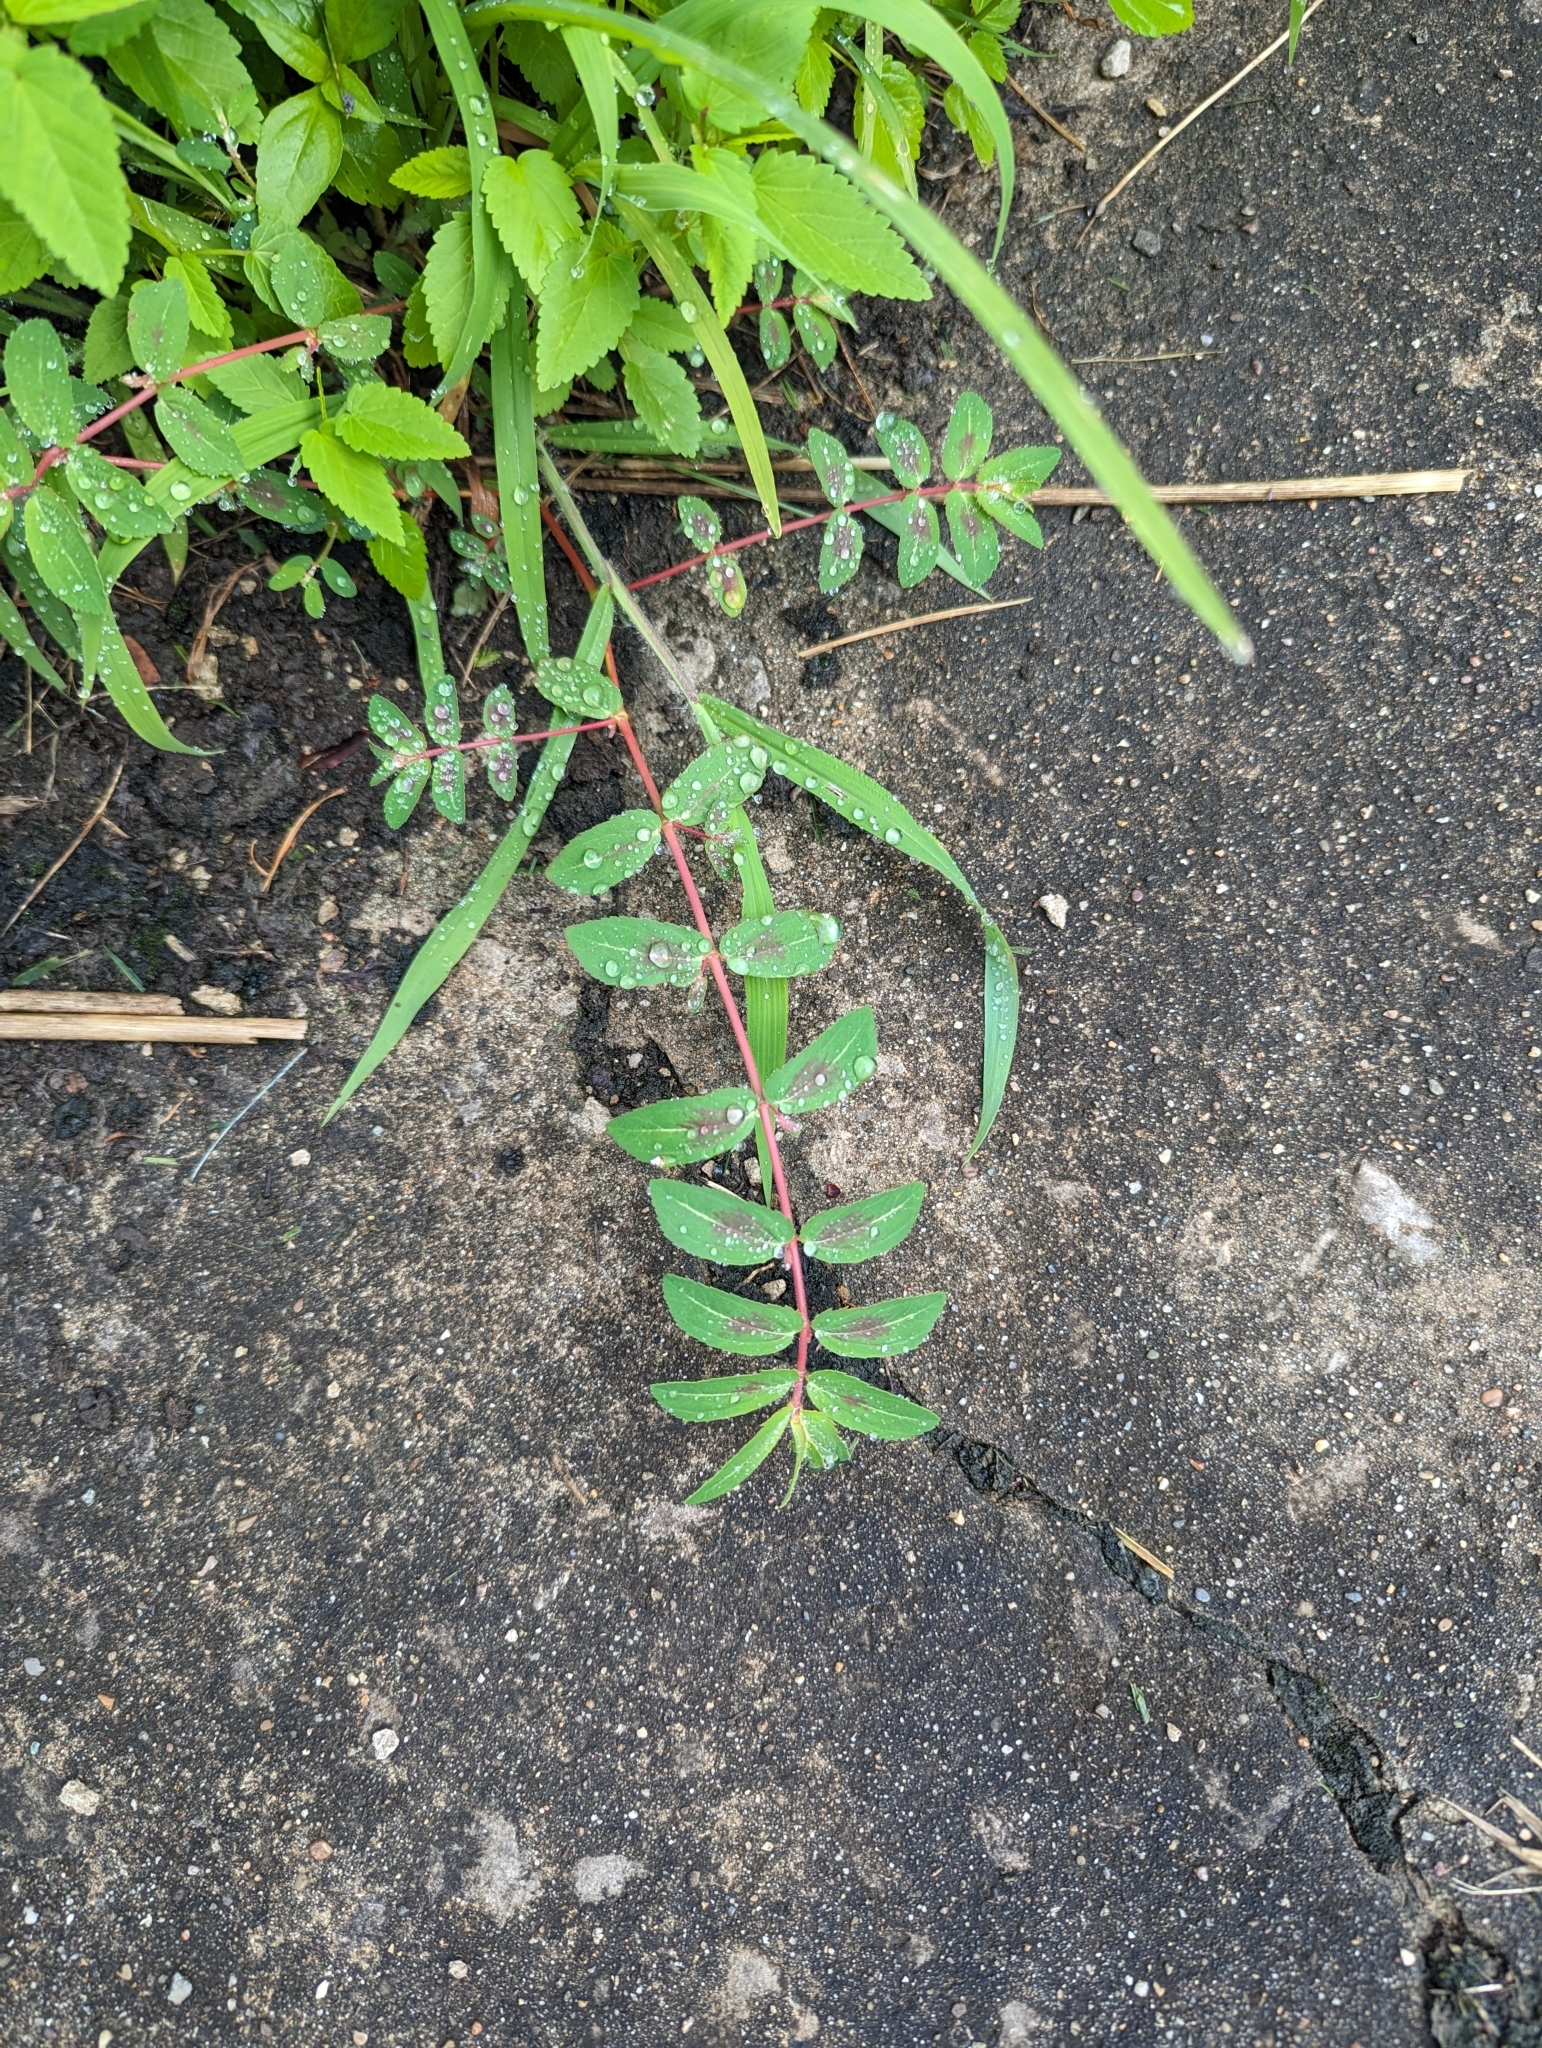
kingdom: Plantae
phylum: Tracheophyta
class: Magnoliopsida
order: Malpighiales
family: Euphorbiaceae
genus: Euphorbia
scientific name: Euphorbia maculata
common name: Spotted spurge
